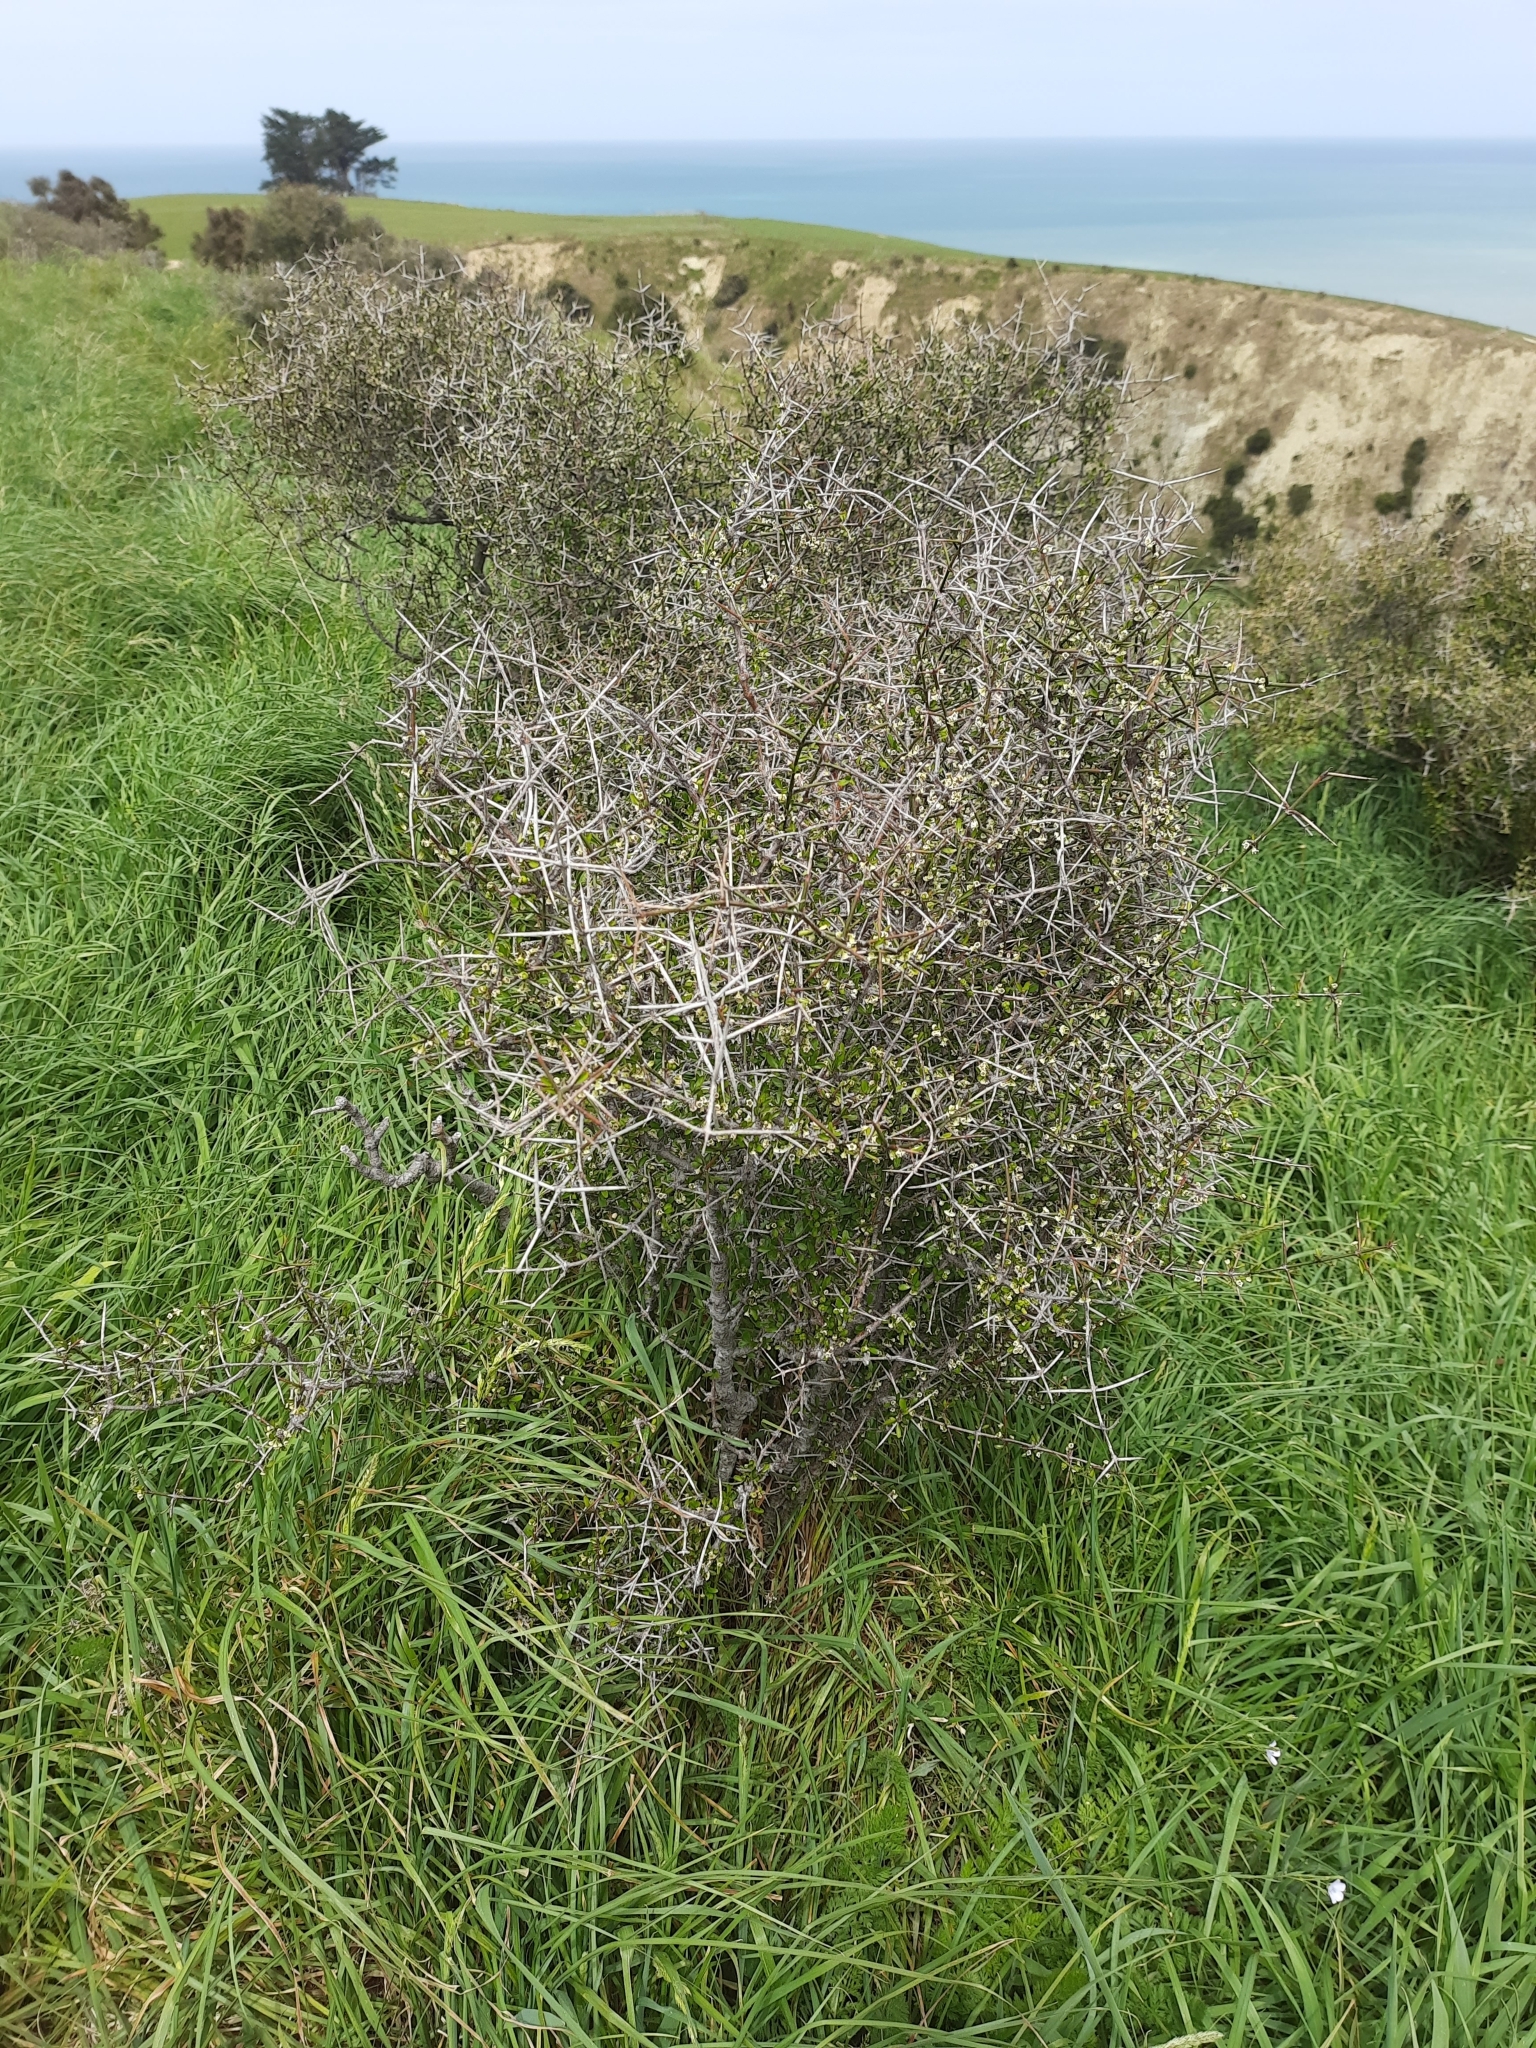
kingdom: Plantae
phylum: Tracheophyta
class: Magnoliopsida
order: Rosales
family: Rhamnaceae
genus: Discaria
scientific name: Discaria toumatou
